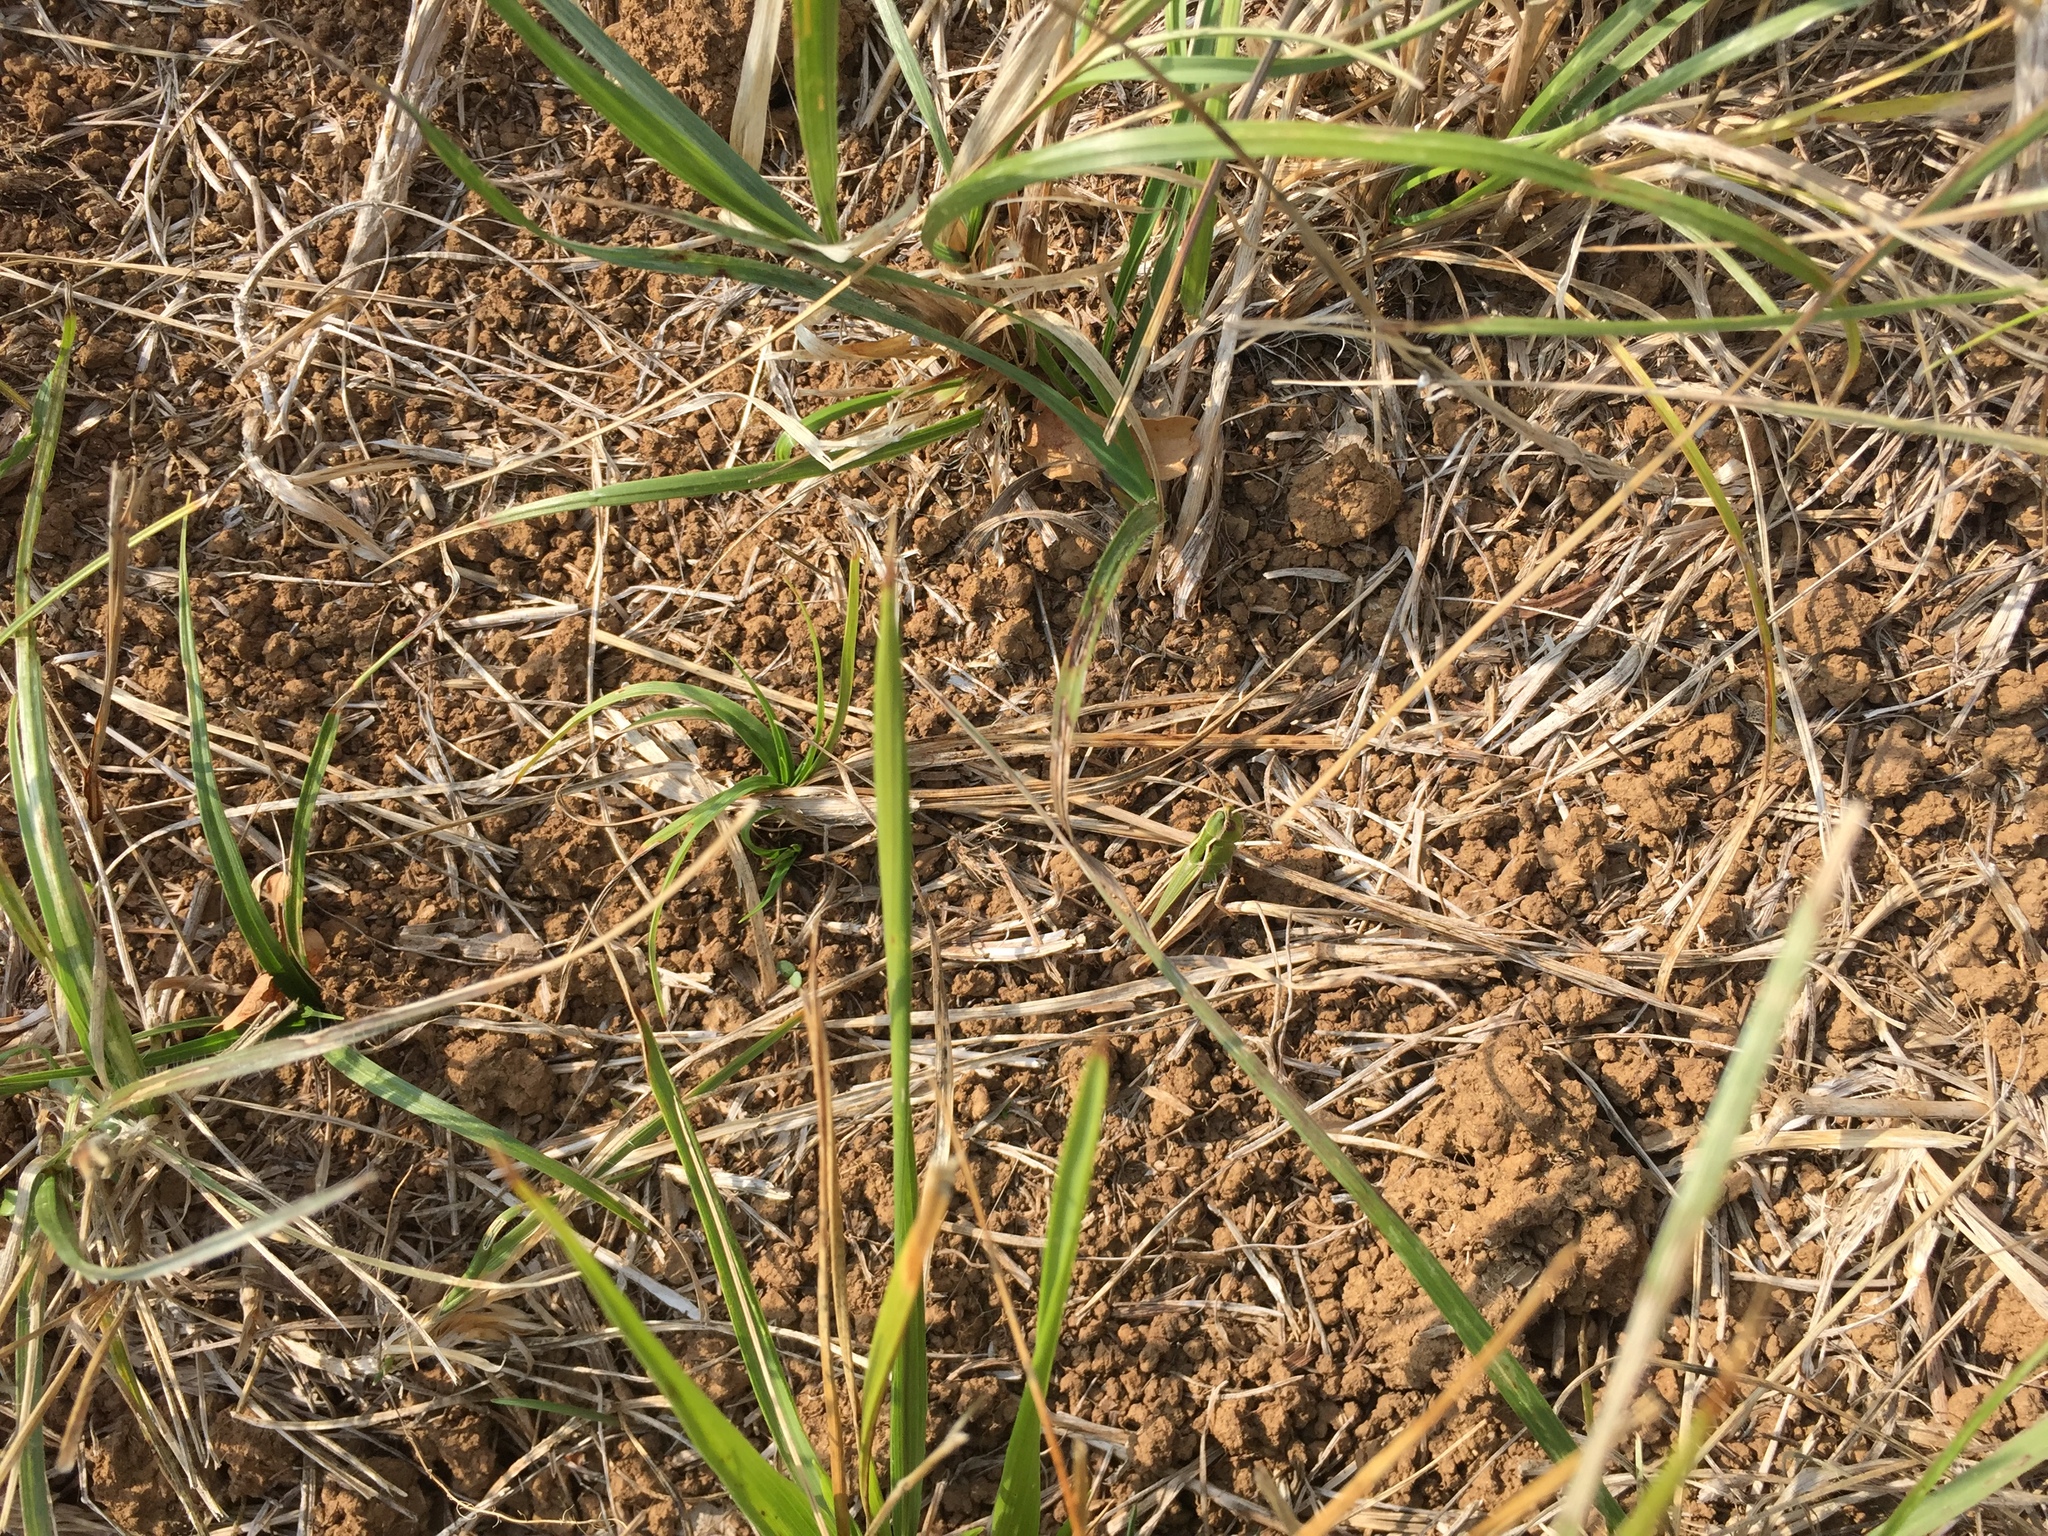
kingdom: Animalia
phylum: Arthropoda
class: Insecta
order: Orthoptera
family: Acrididae
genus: Stenobothrus
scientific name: Stenobothrus lineatus
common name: Stripe-winged grasshopper
